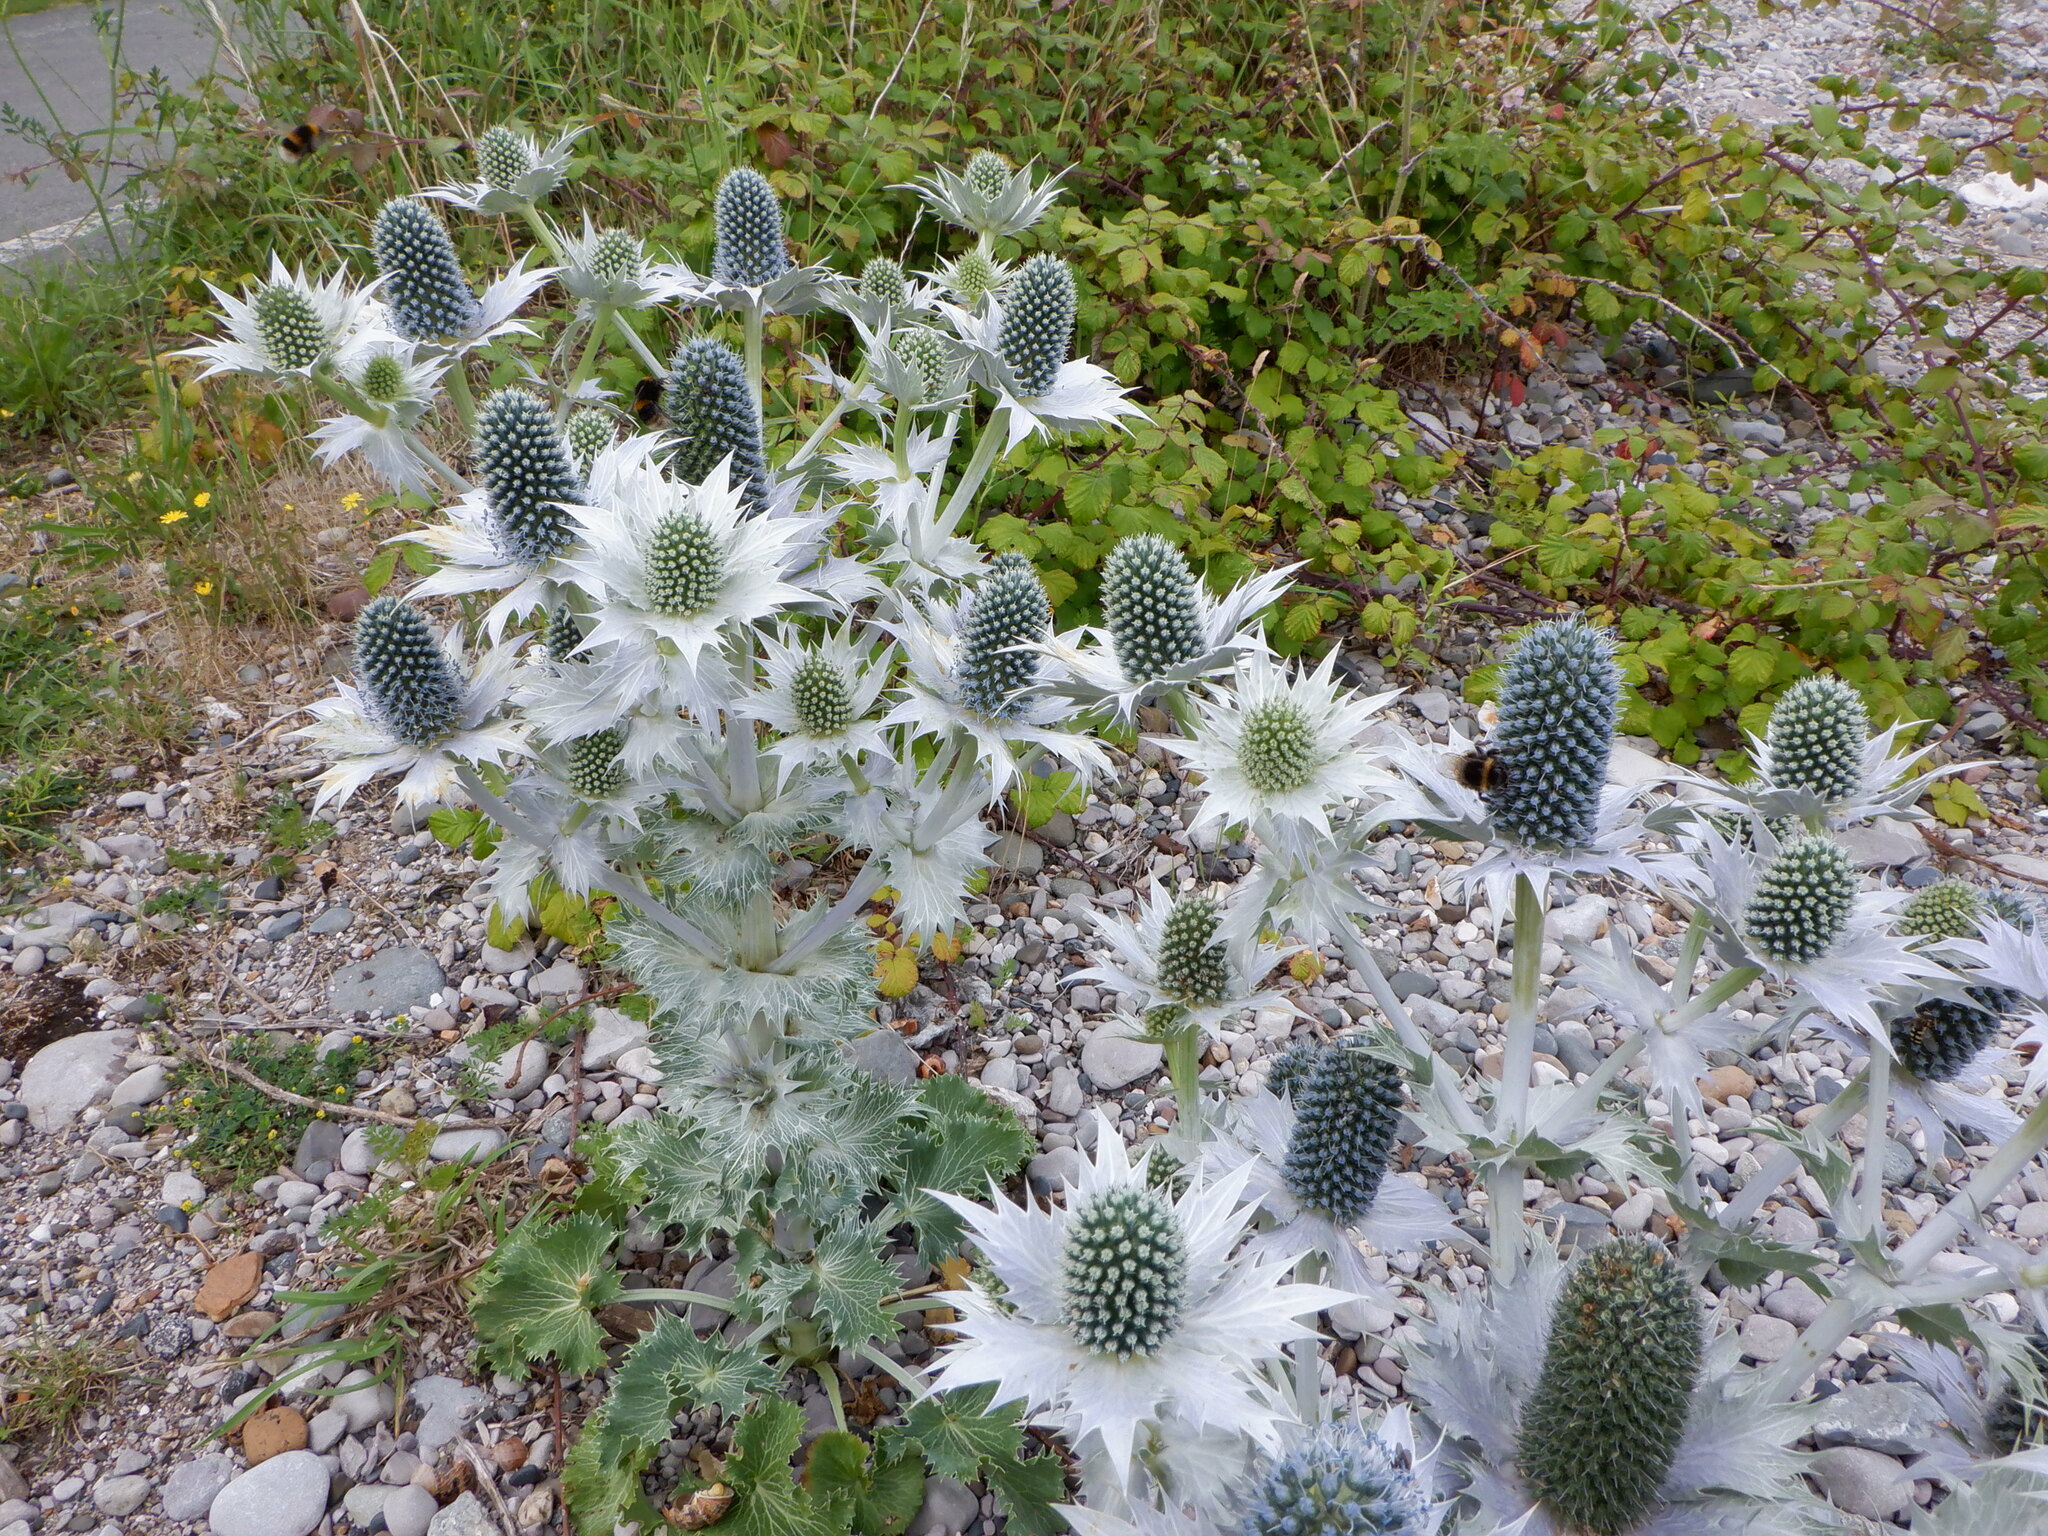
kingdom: Plantae
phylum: Tracheophyta
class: Magnoliopsida
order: Apiales
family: Apiaceae
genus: Eryngium
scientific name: Eryngium giganteum
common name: Tall eryngo
